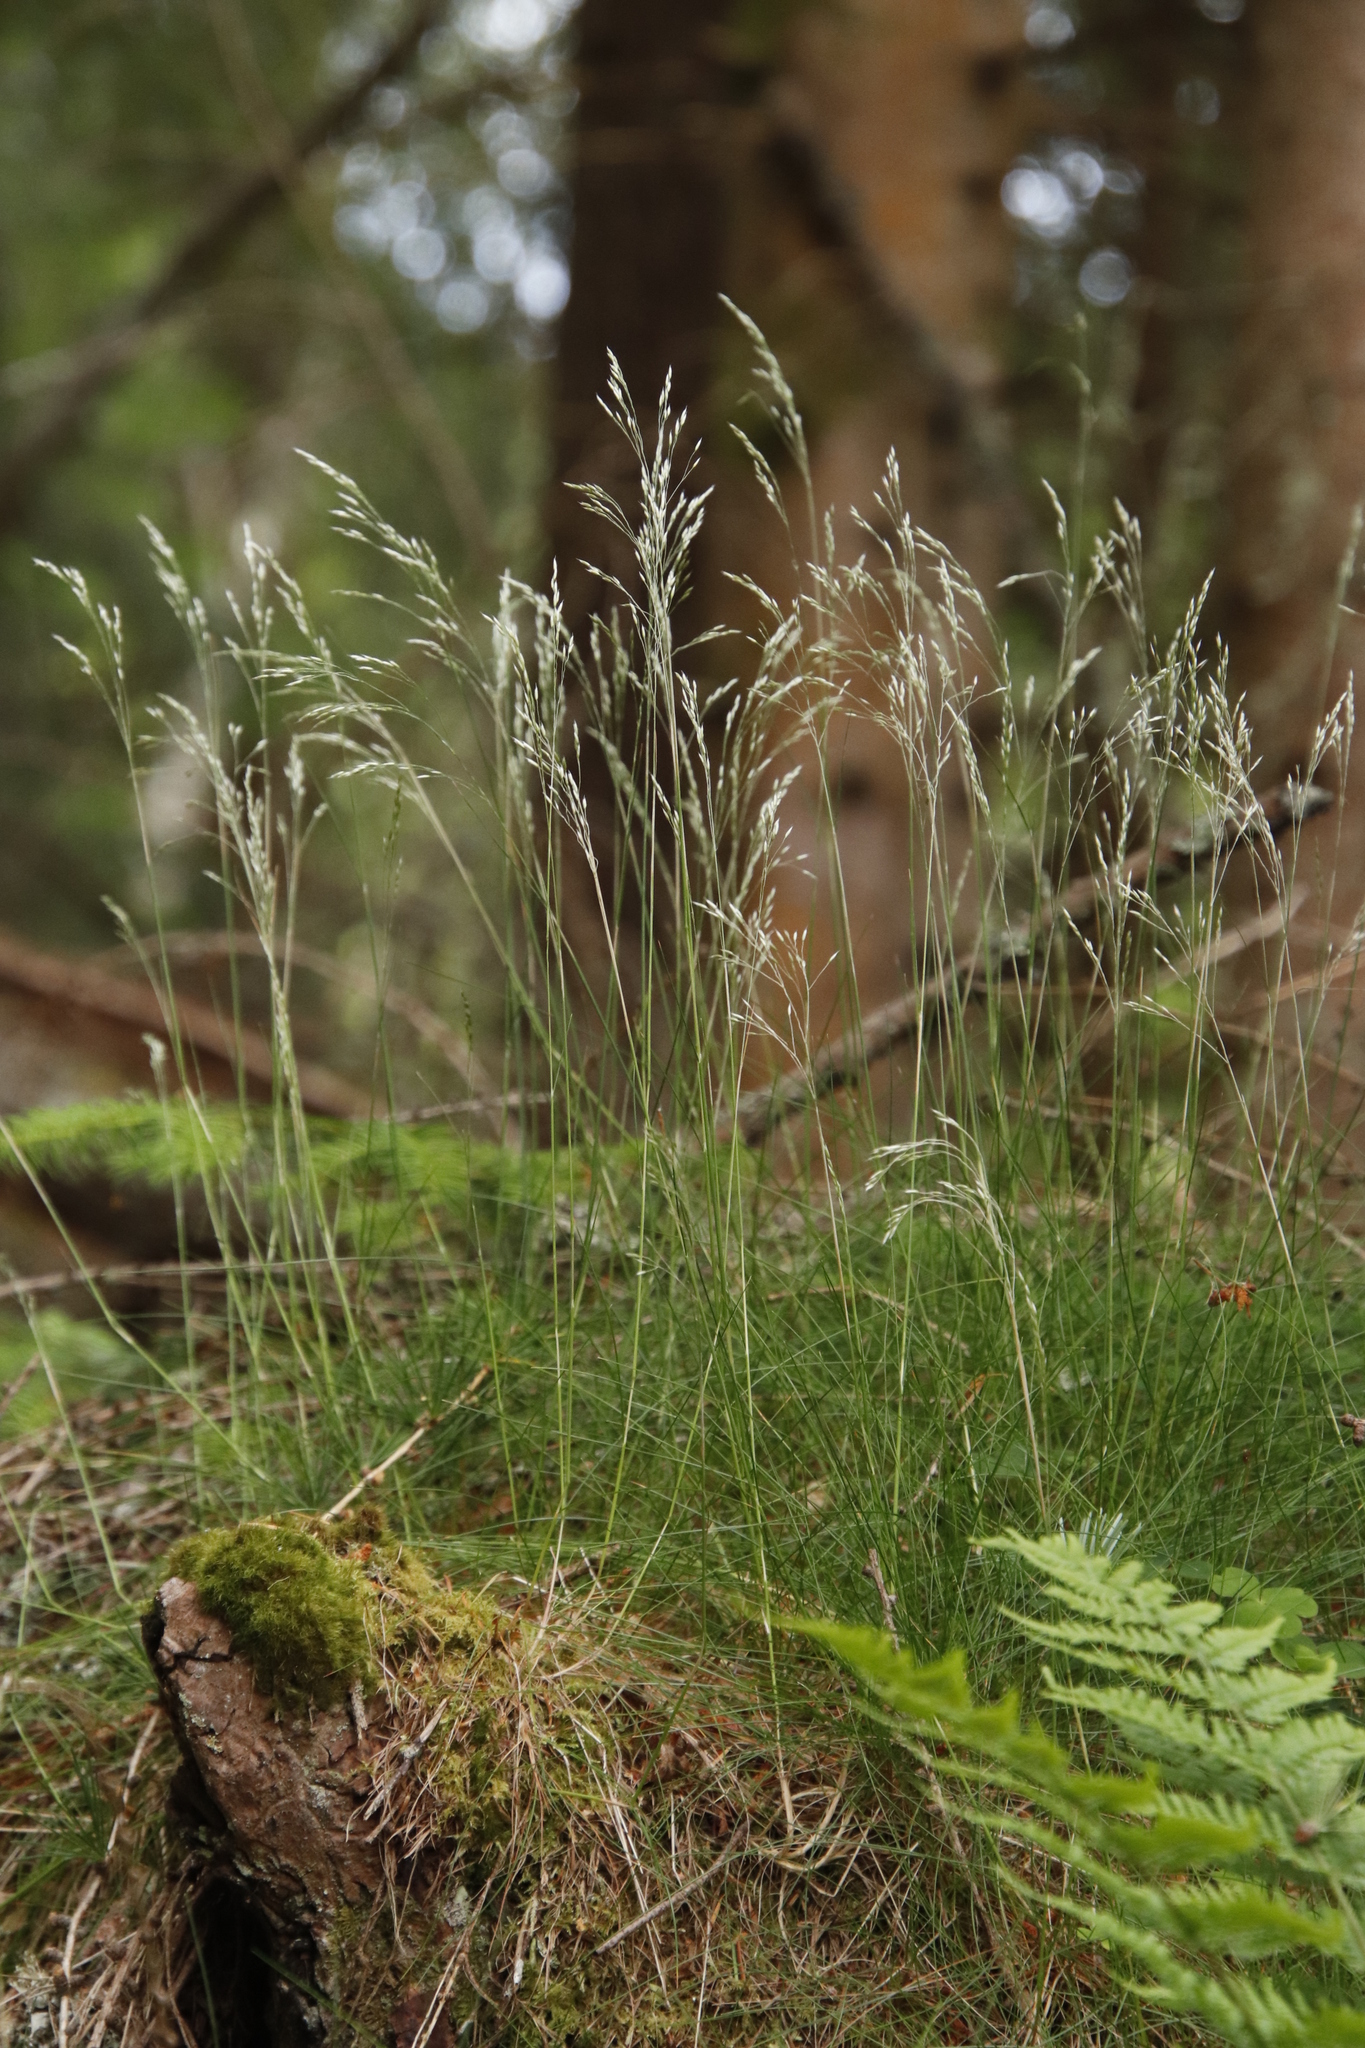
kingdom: Plantae
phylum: Tracheophyta
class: Liliopsida
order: Poales
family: Poaceae
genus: Avenella
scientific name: Avenella flexuosa
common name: Wavy hairgrass
